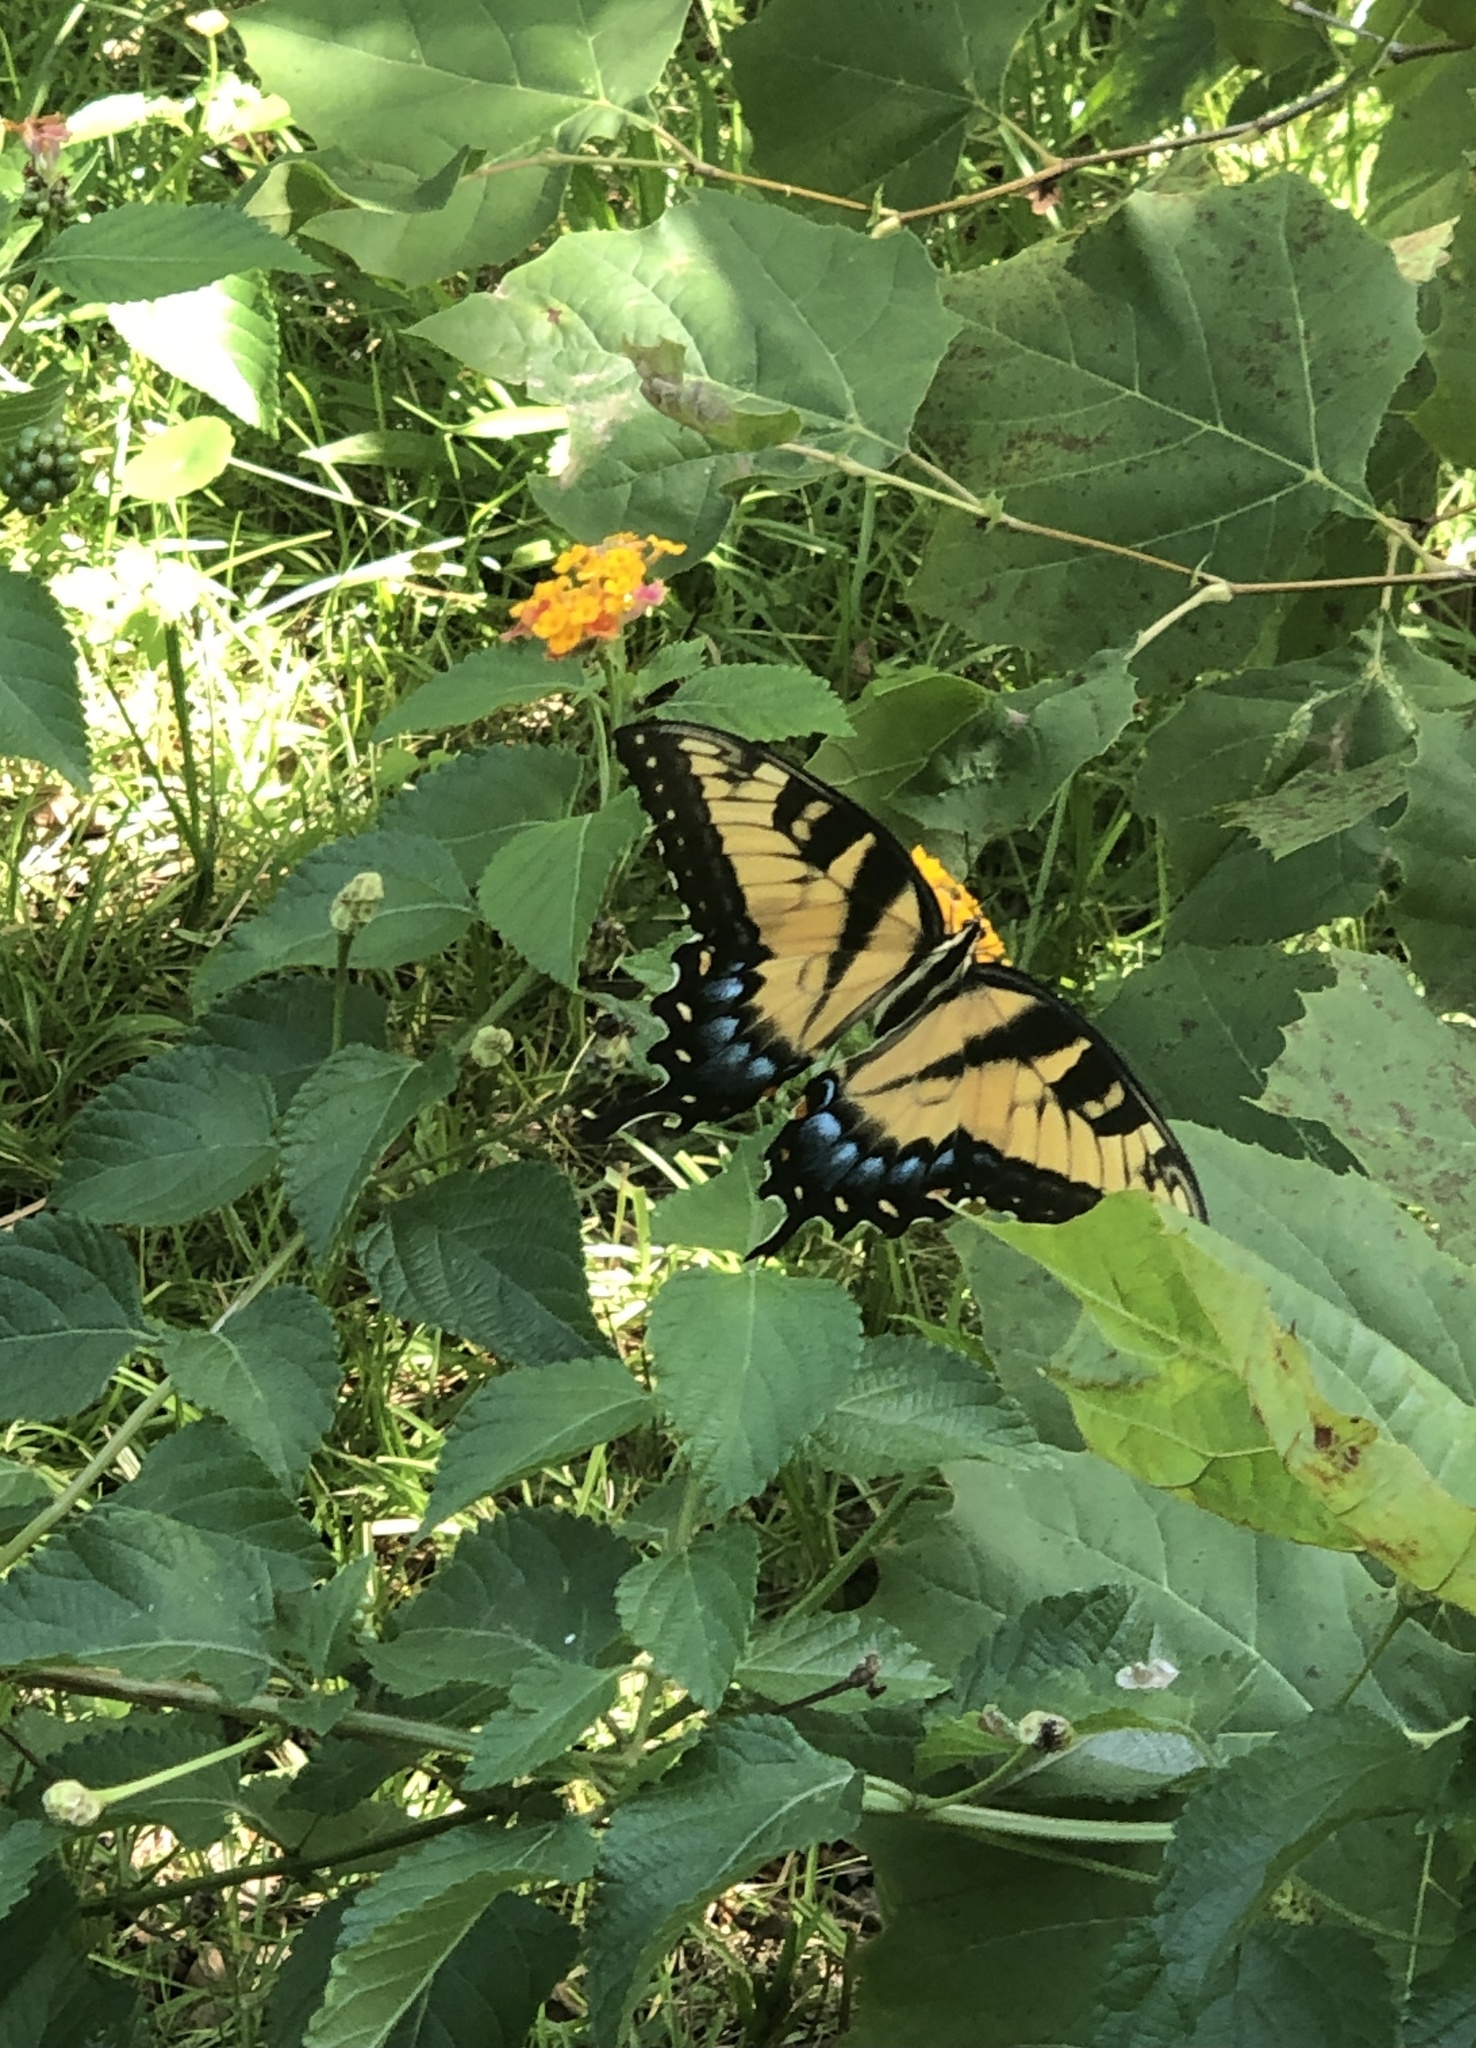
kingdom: Animalia
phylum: Arthropoda
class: Insecta
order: Lepidoptera
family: Papilionidae
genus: Papilio
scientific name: Papilio glaucus
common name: Tiger swallowtail
